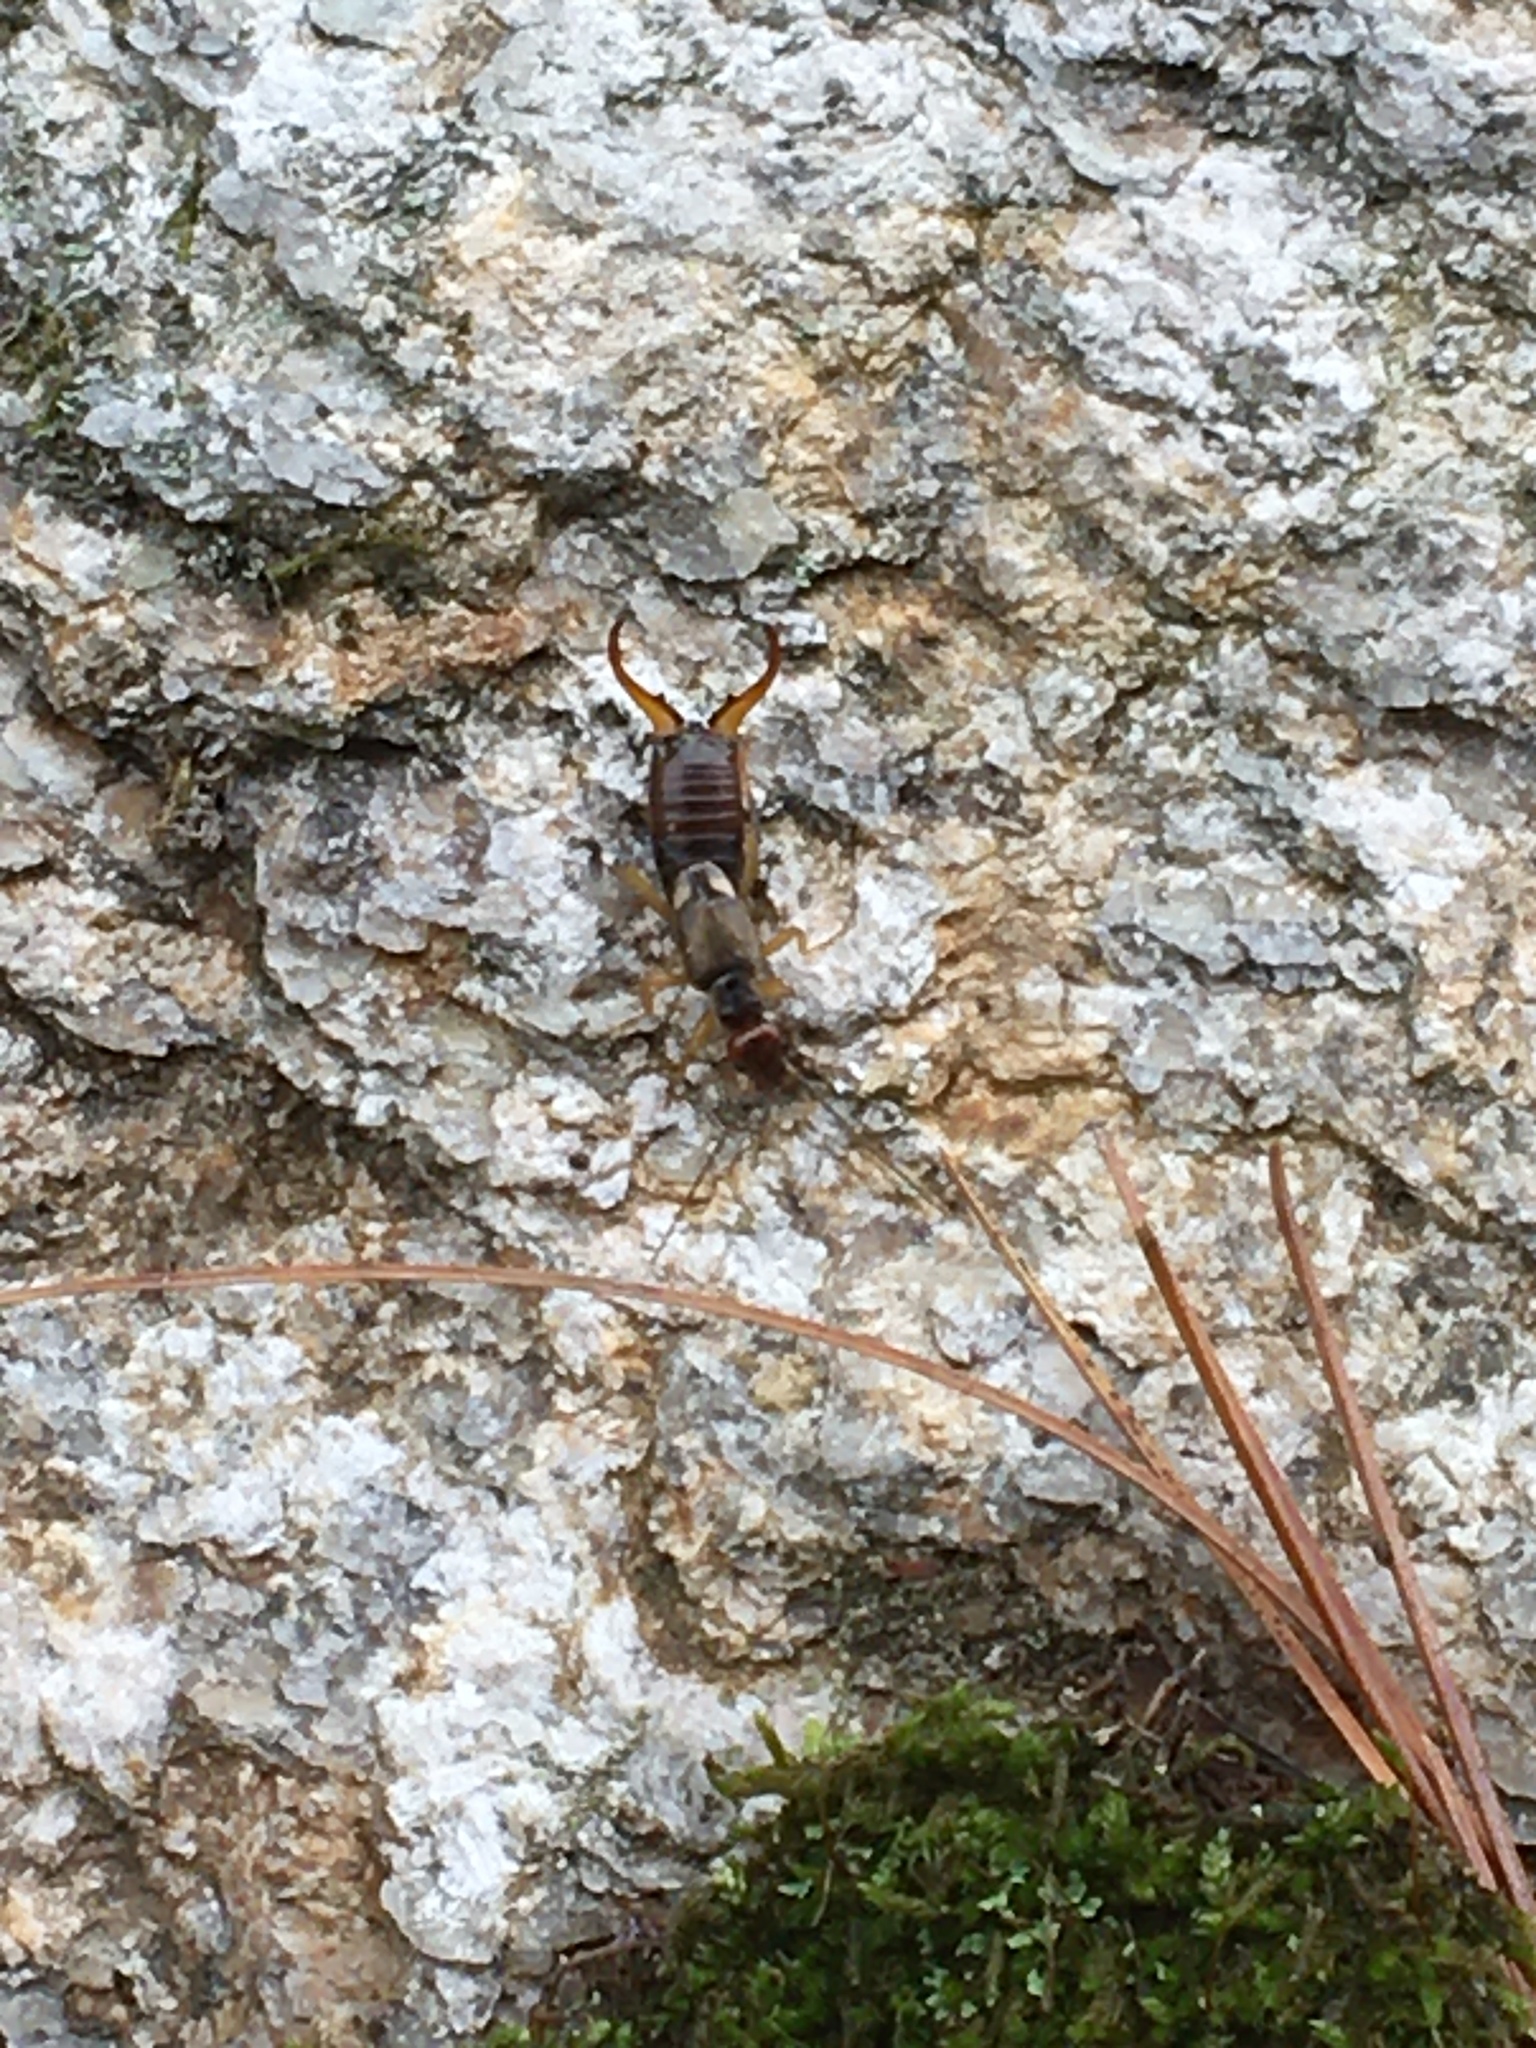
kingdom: Animalia
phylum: Arthropoda
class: Insecta
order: Dermaptera
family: Forficulidae
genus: Forficula
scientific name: Forficula
